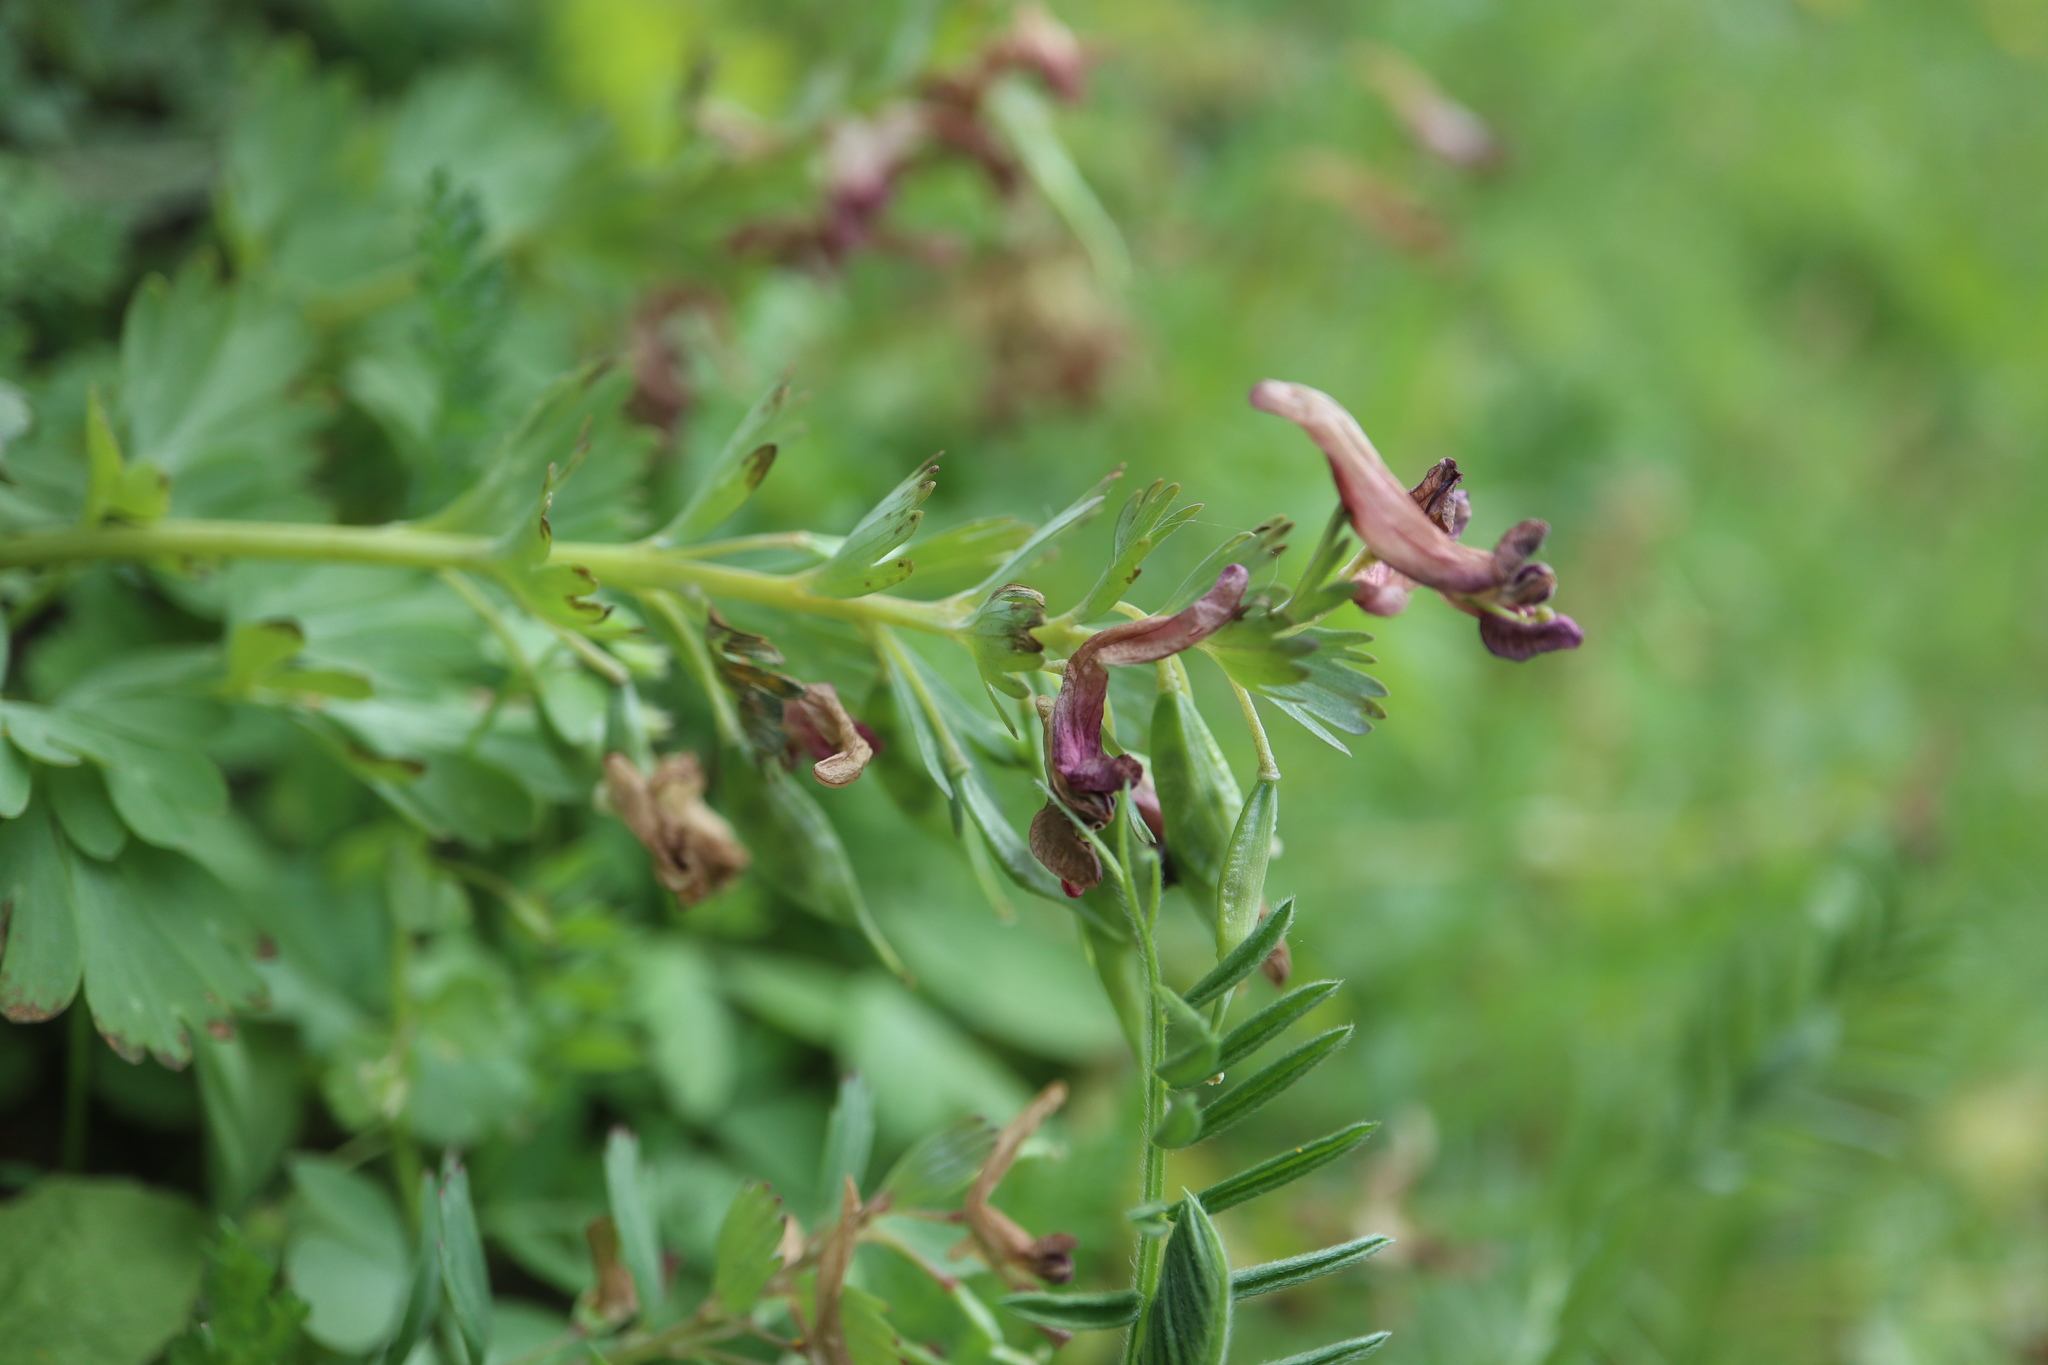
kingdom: Plantae
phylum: Tracheophyta
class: Magnoliopsida
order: Ranunculales
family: Papaveraceae
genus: Corydalis
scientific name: Corydalis solida
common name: Bird-in-a-bush
